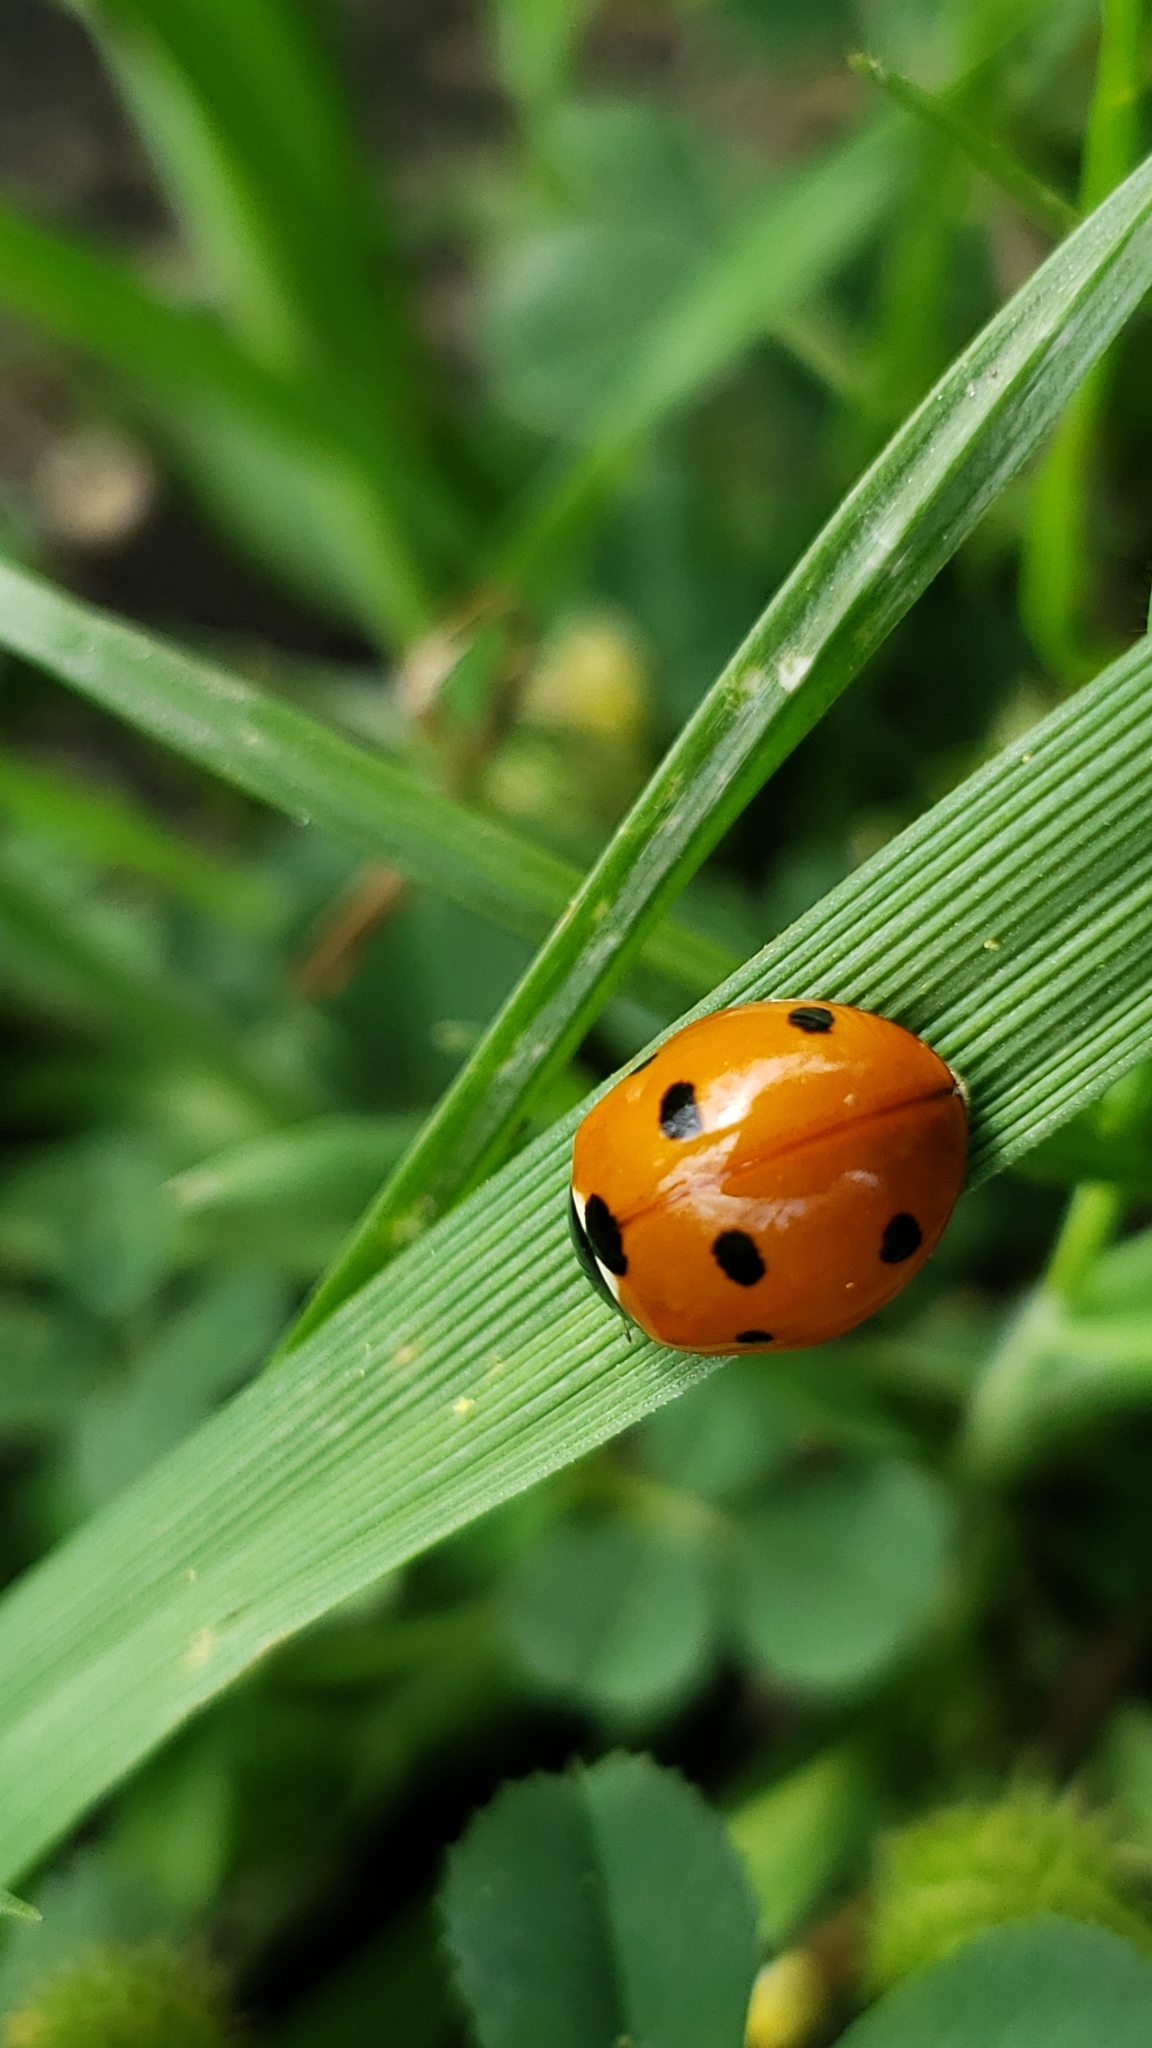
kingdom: Animalia
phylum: Arthropoda
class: Insecta
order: Coleoptera
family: Coccinellidae
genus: Coccinella
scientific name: Coccinella septempunctata
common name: Sevenspotted lady beetle
